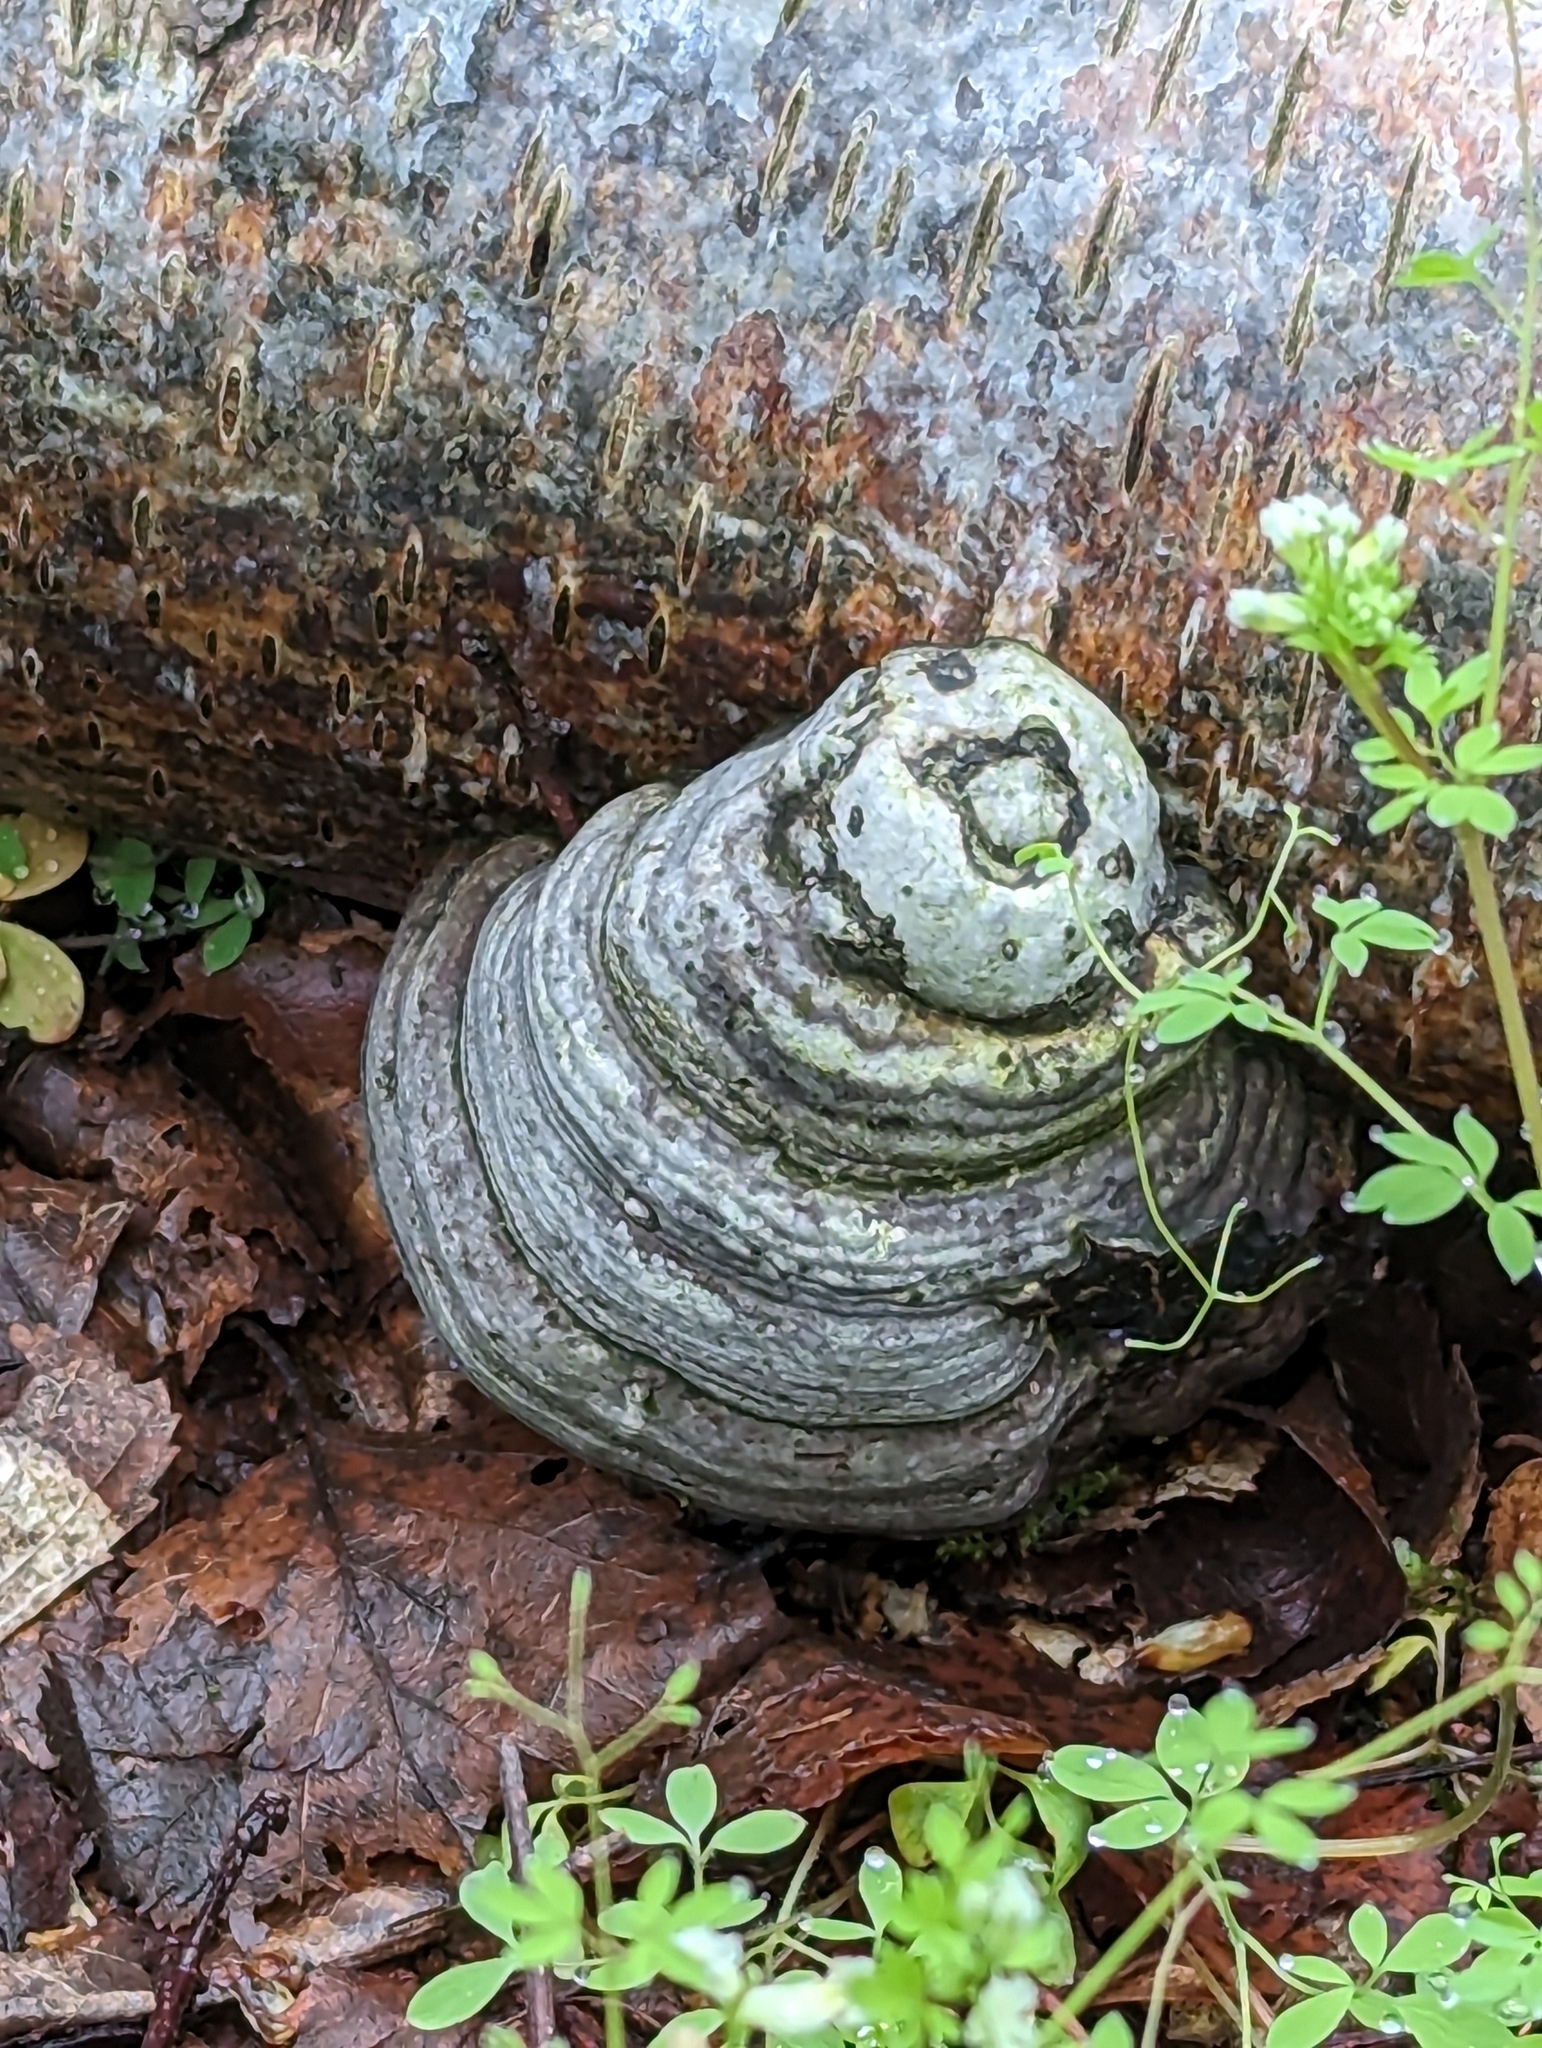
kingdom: Fungi
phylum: Basidiomycota
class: Agaricomycetes
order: Polyporales
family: Polyporaceae
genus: Fomes
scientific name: Fomes fomentarius
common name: Hoof fungus
